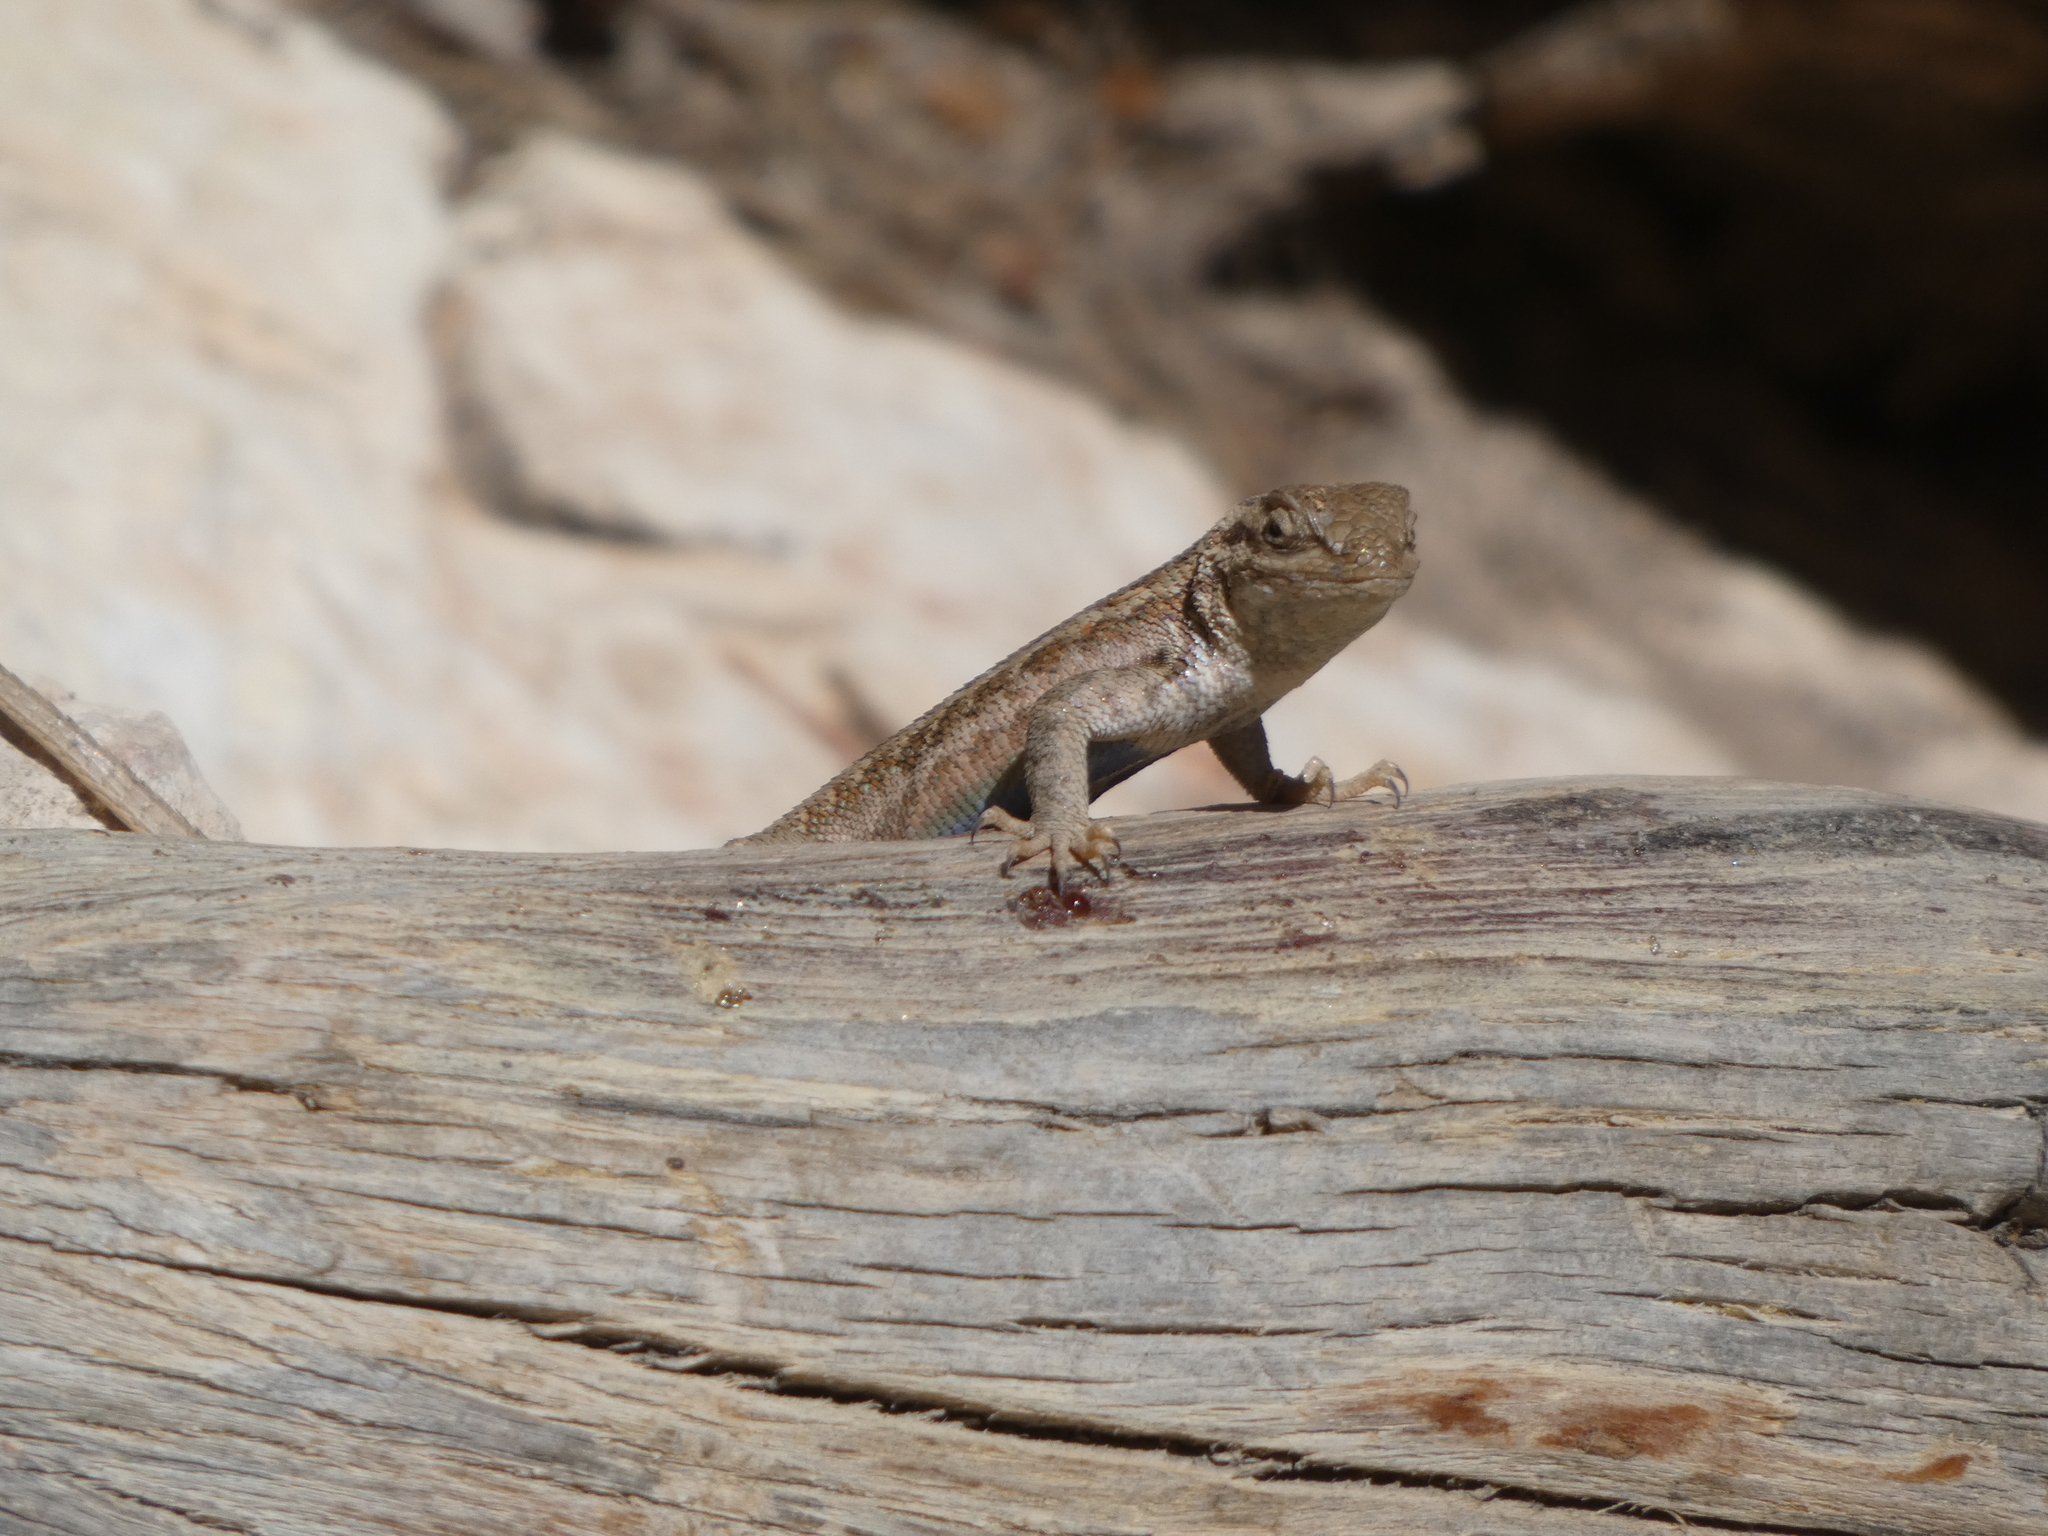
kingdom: Animalia
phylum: Chordata
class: Squamata
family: Phrynosomatidae
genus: Sceloporus
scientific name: Sceloporus graciosus
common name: Sagebrush lizard
